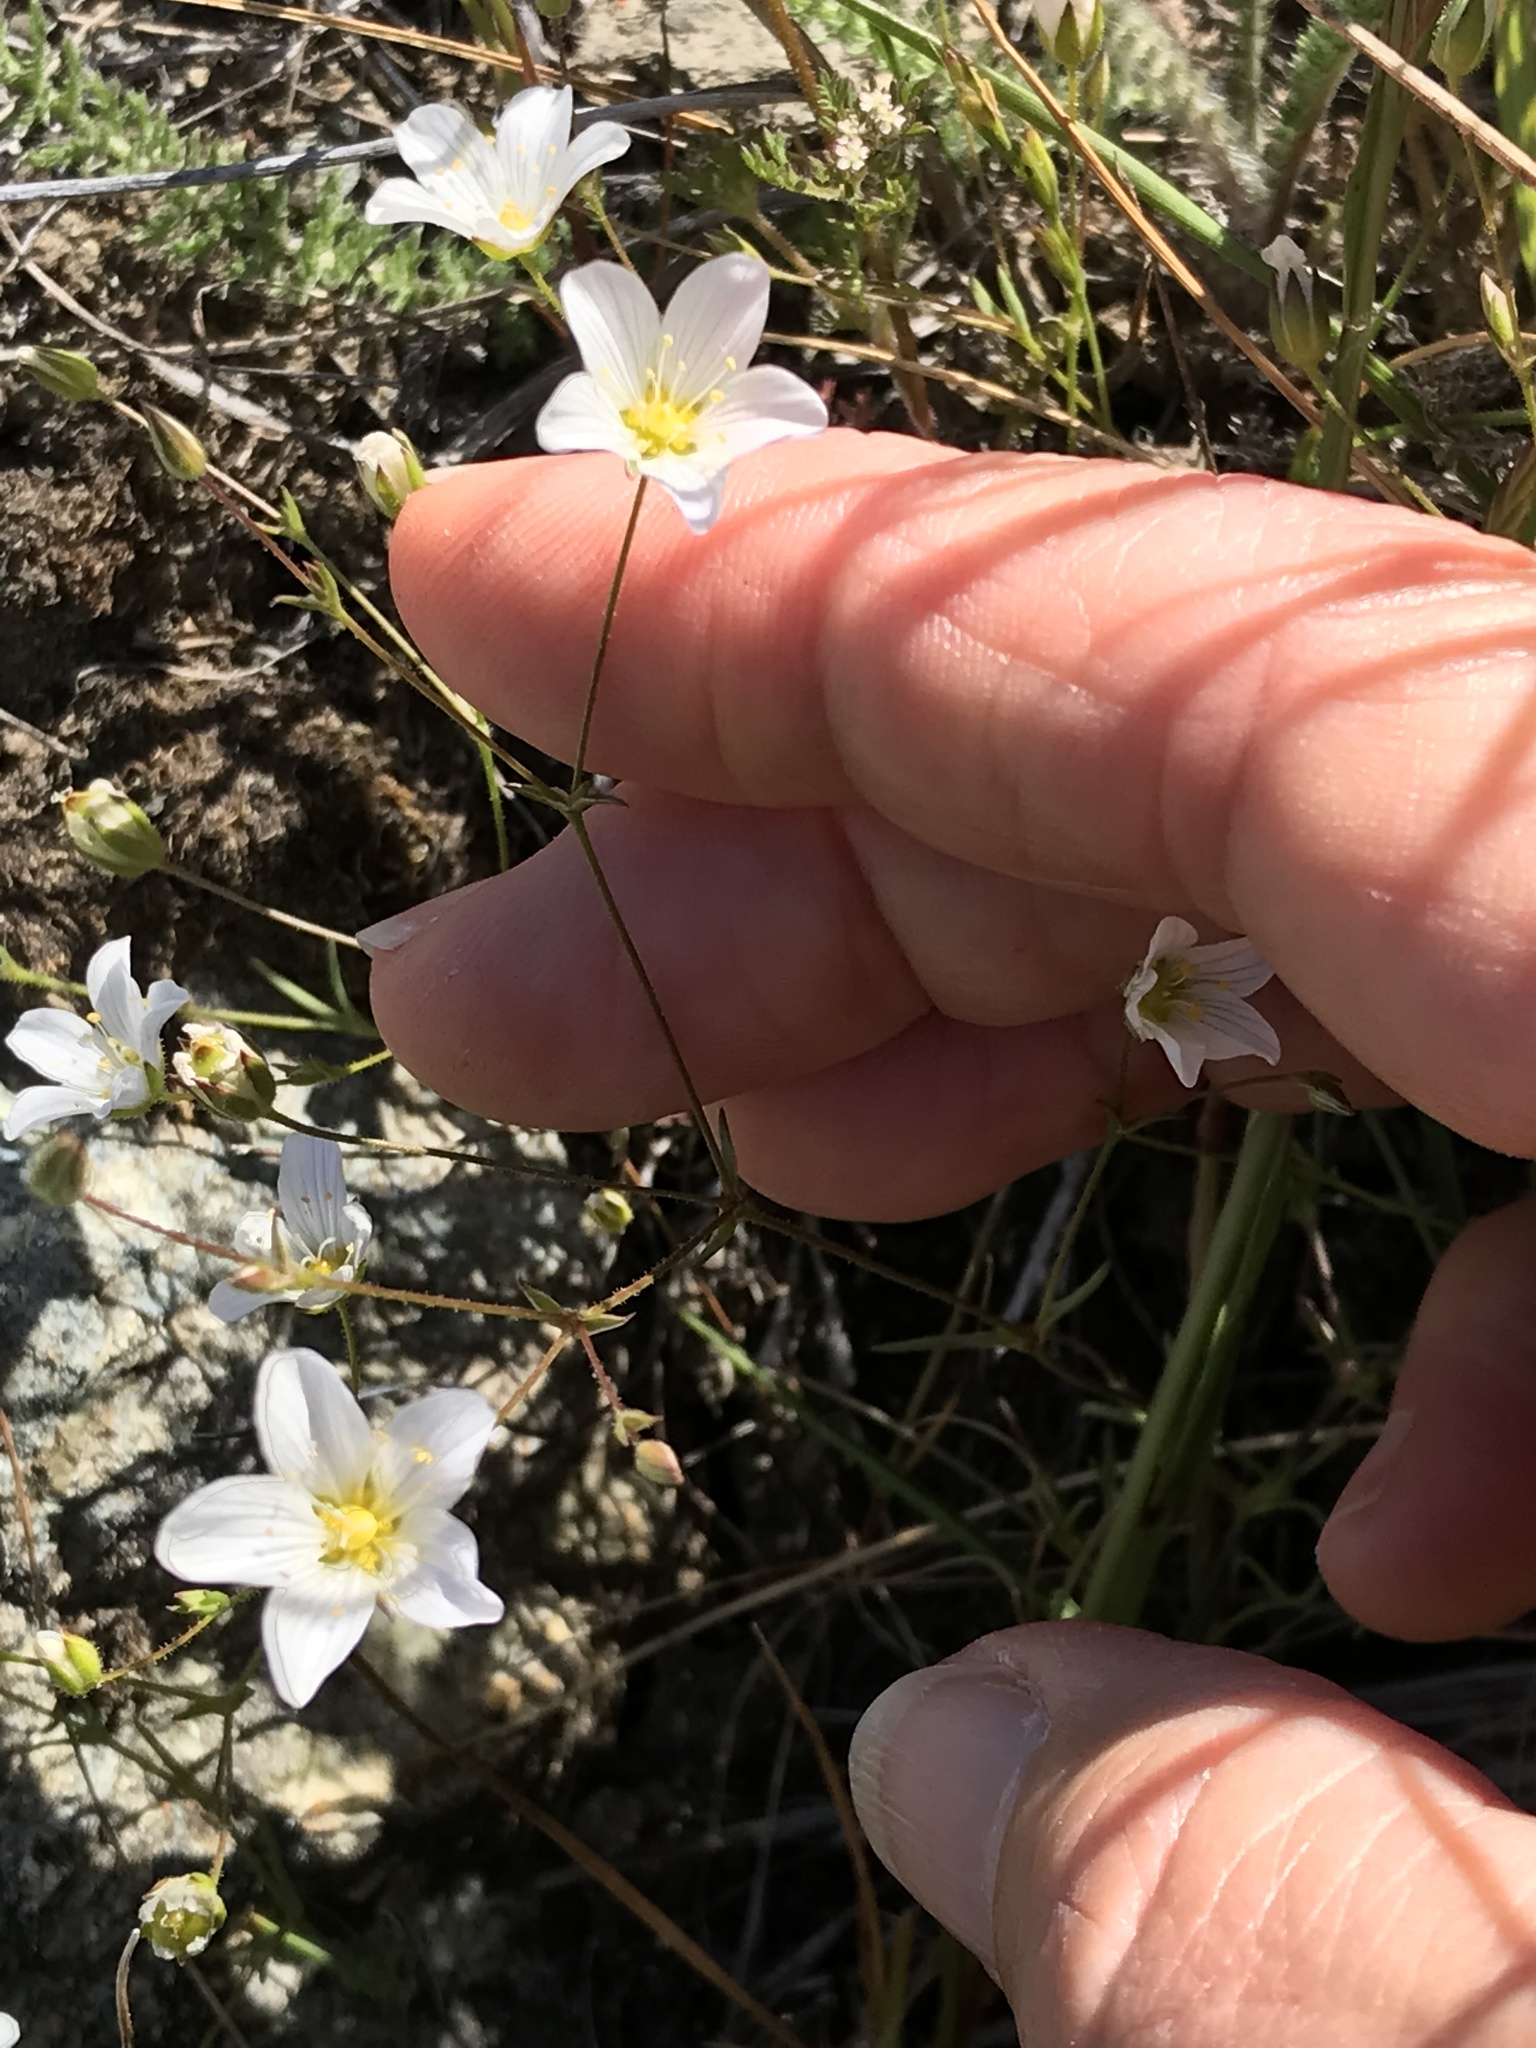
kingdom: Plantae
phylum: Tracheophyta
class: Magnoliopsida
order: Caryophyllales
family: Caryophyllaceae
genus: Sabulina
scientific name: Sabulina douglasii
